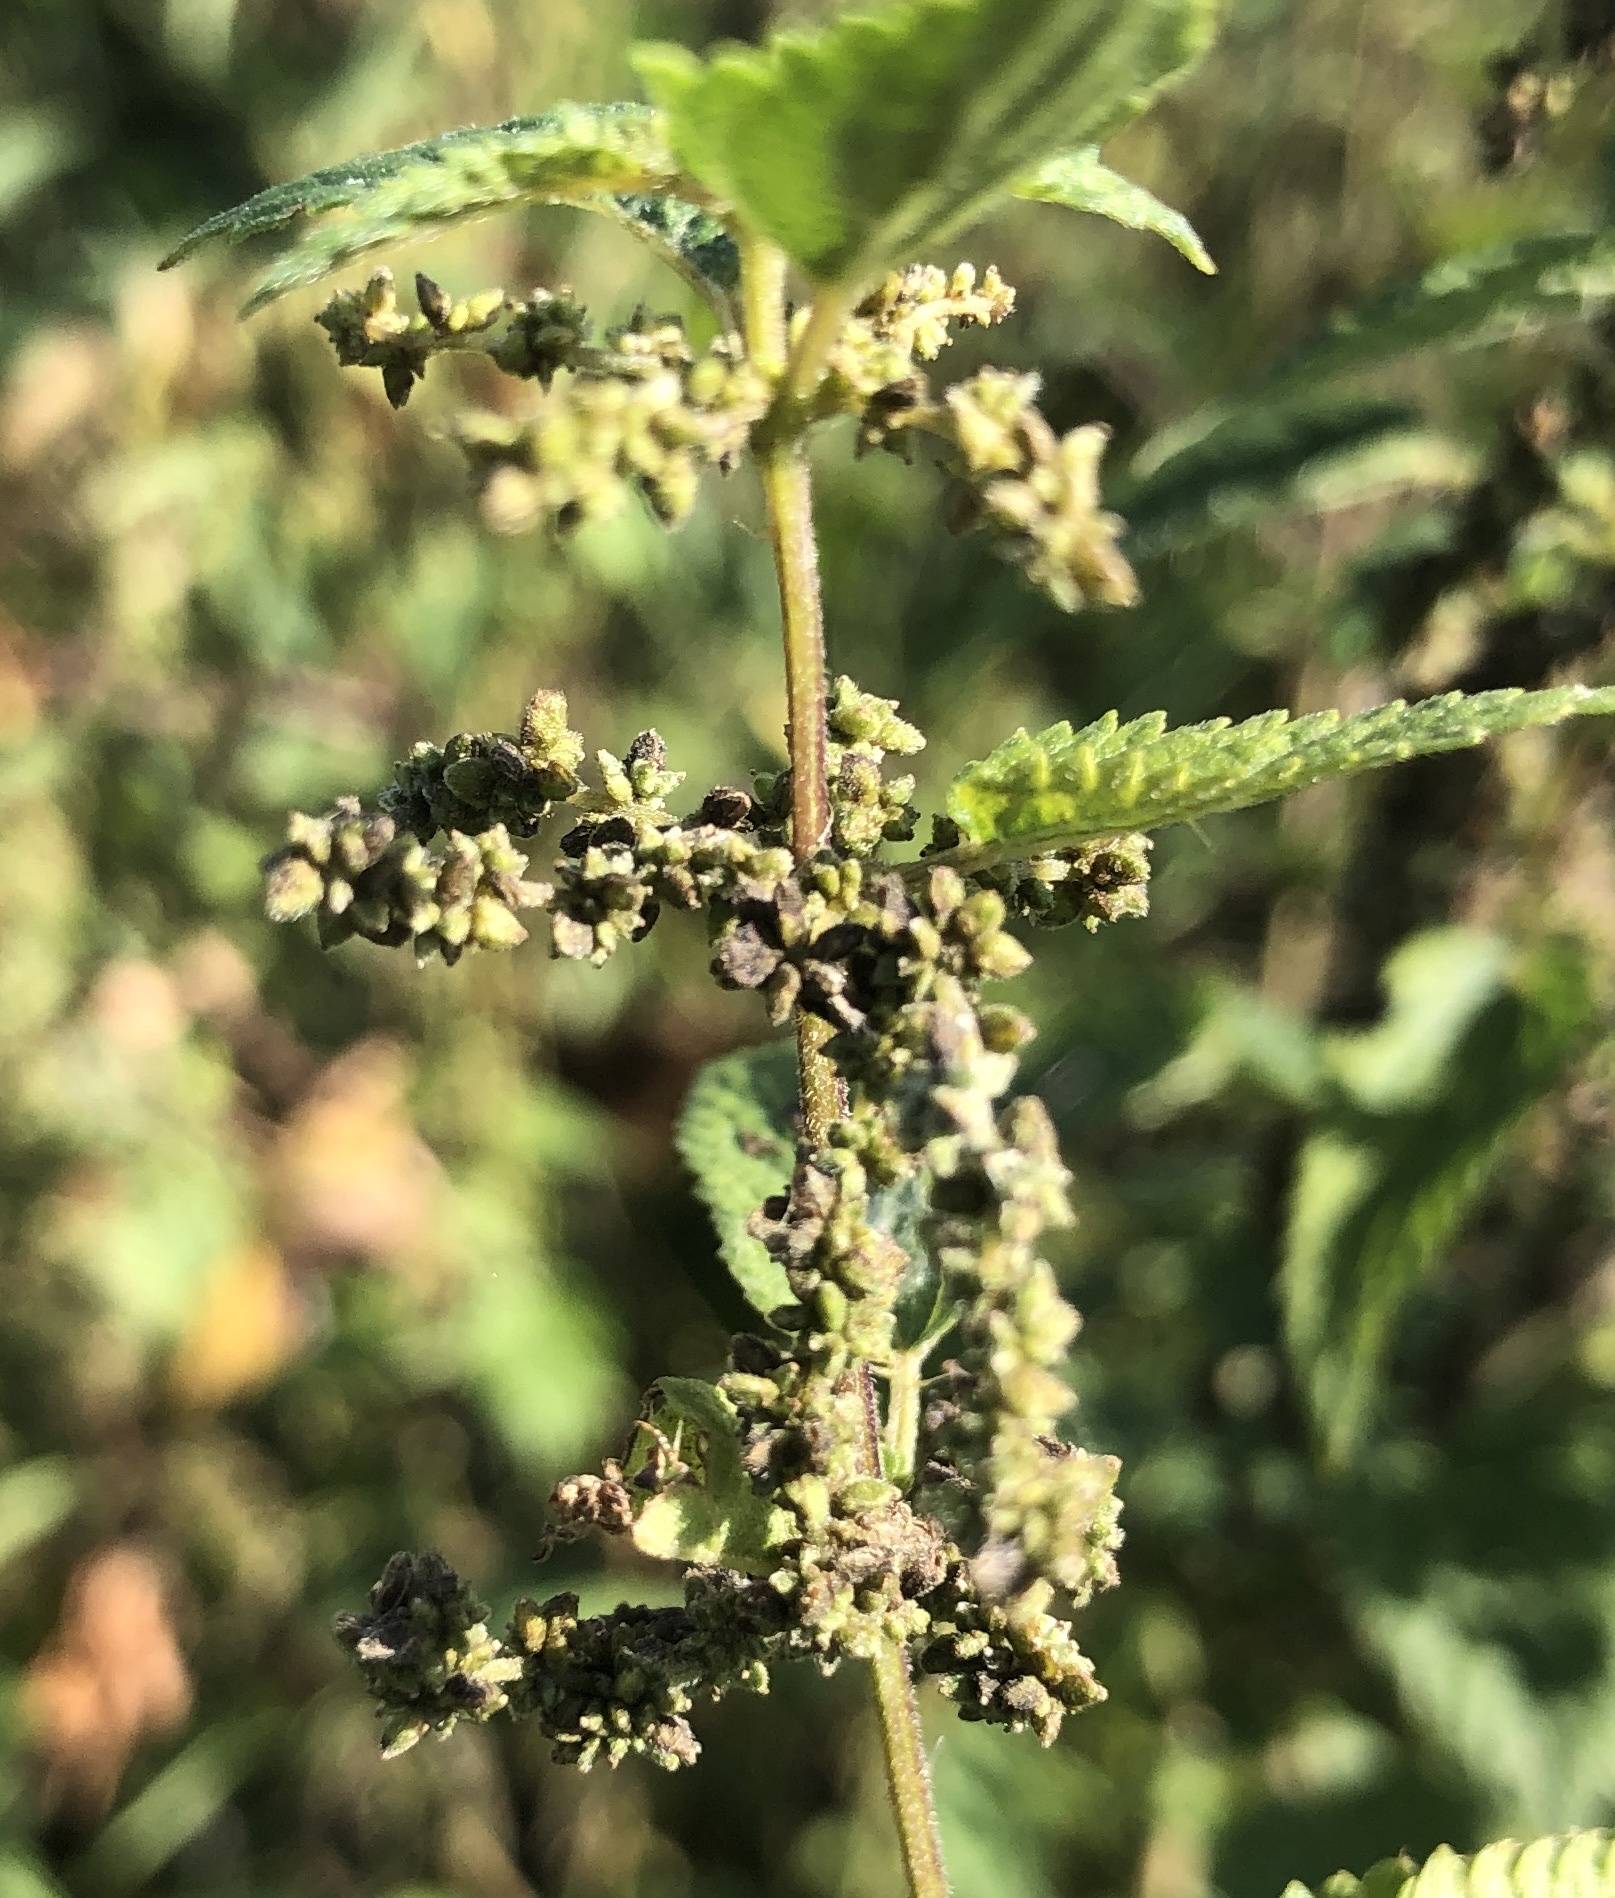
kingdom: Plantae
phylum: Tracheophyta
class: Magnoliopsida
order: Rosales
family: Urticaceae
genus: Urtica
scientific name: Urtica dioica
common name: Common nettle
